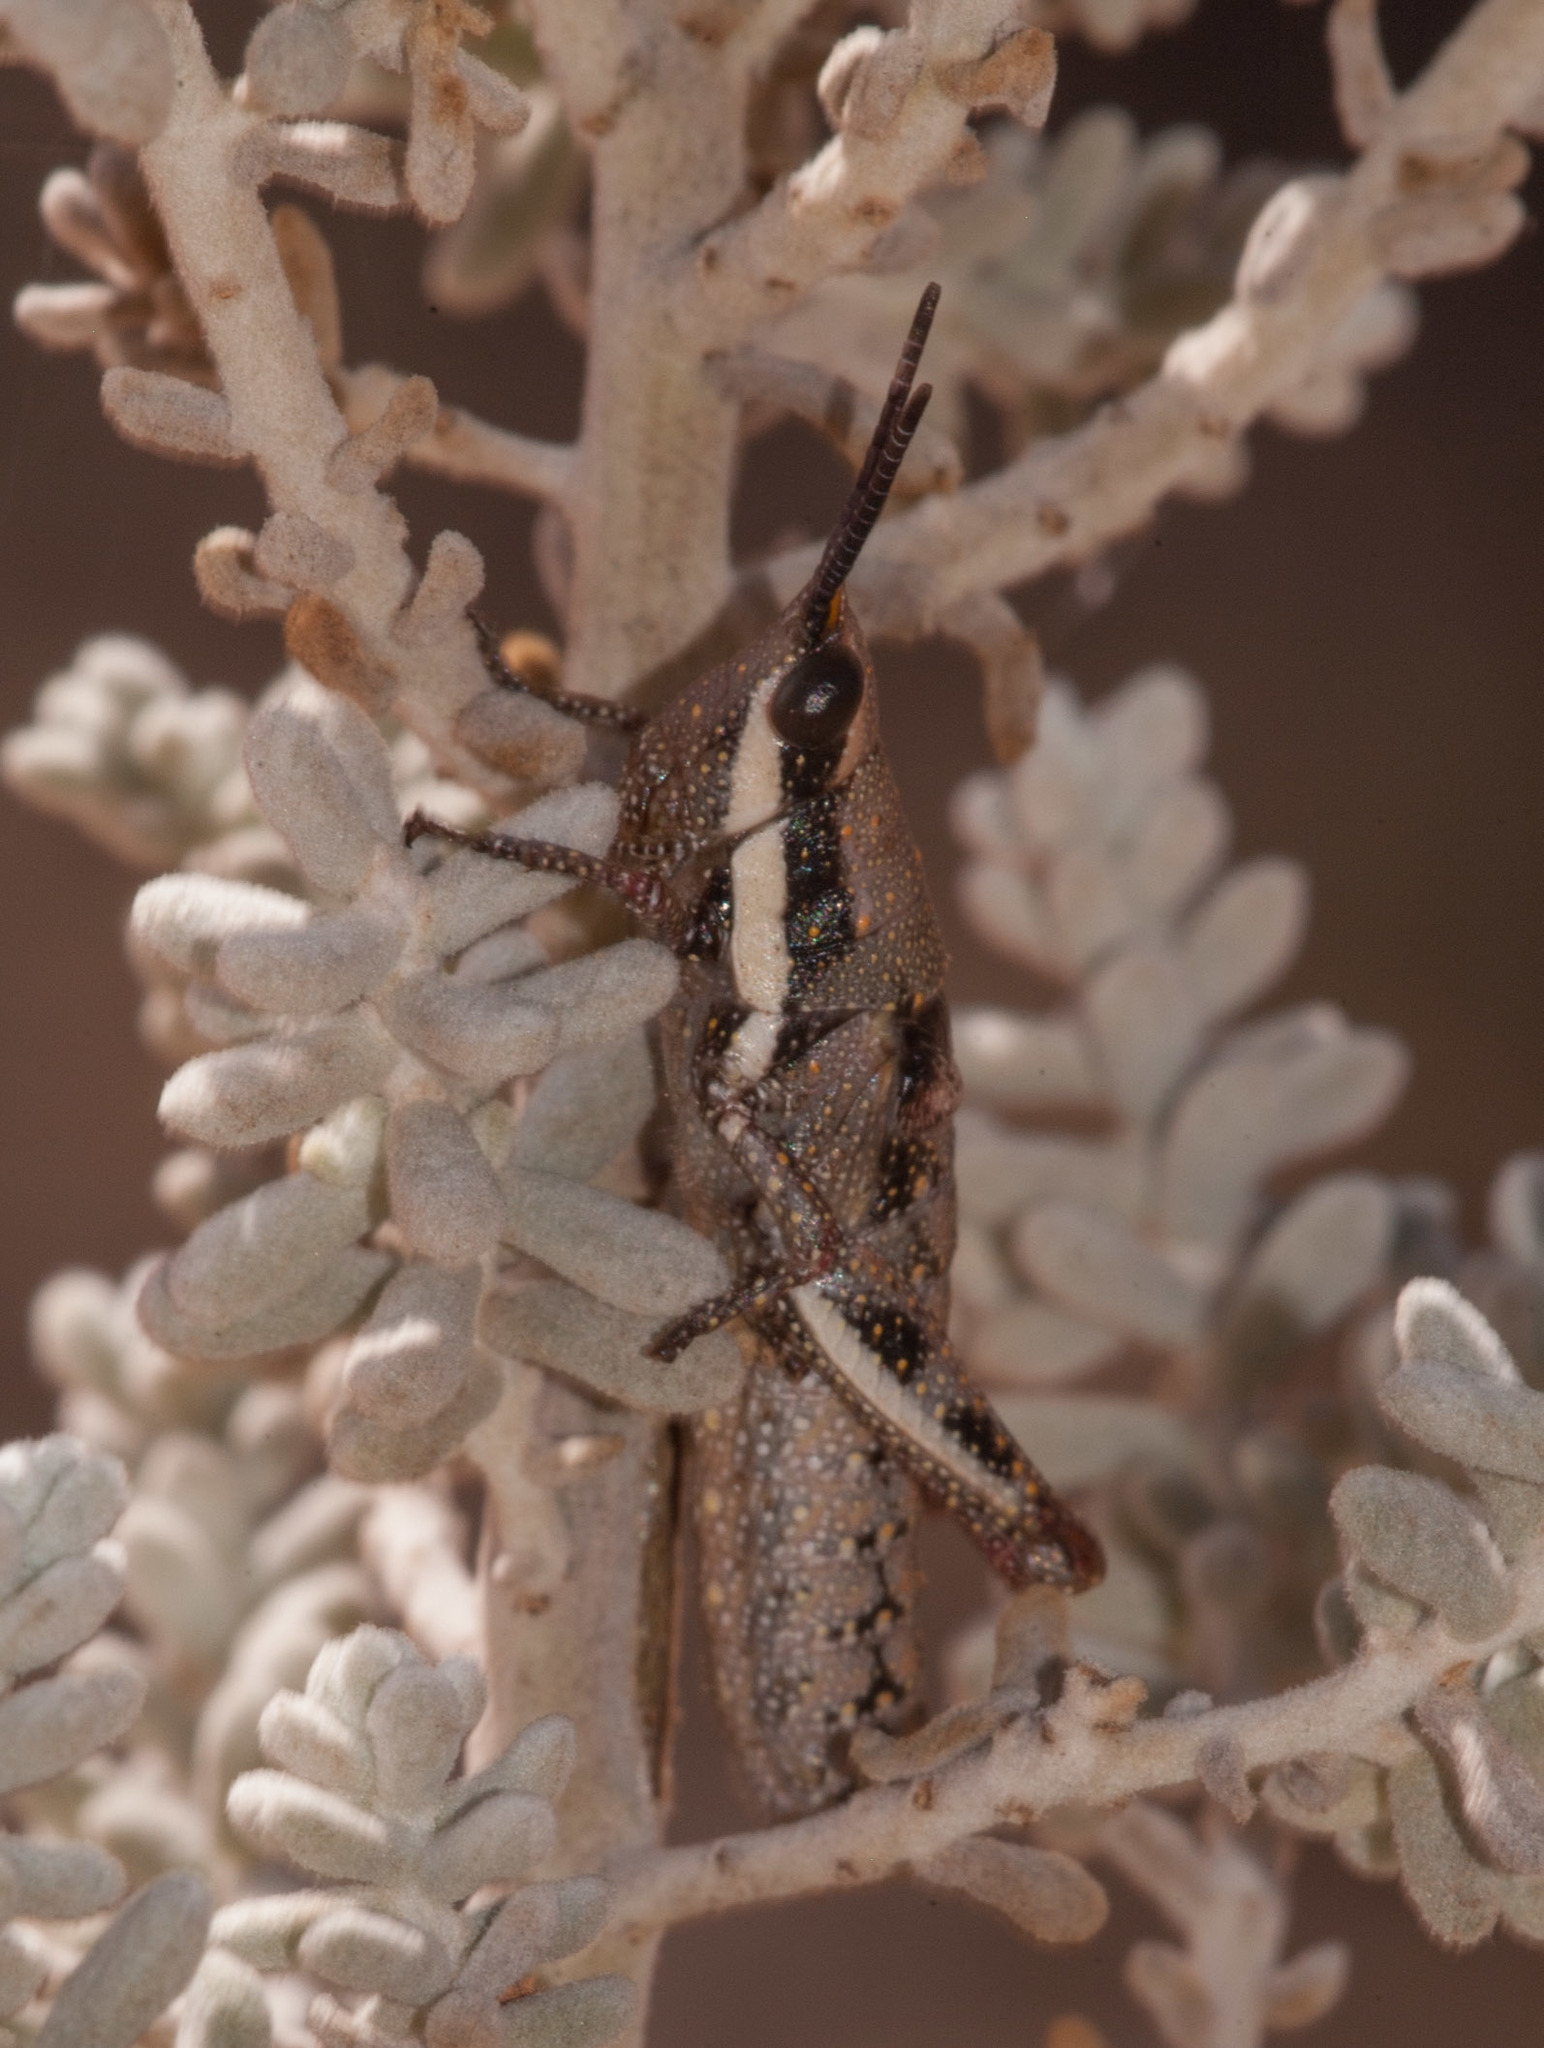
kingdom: Animalia
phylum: Arthropoda
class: Insecta
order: Orthoptera
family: Pyrgomorphidae
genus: Monistria
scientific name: Monistria discrepans
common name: Common pyrgomorph
